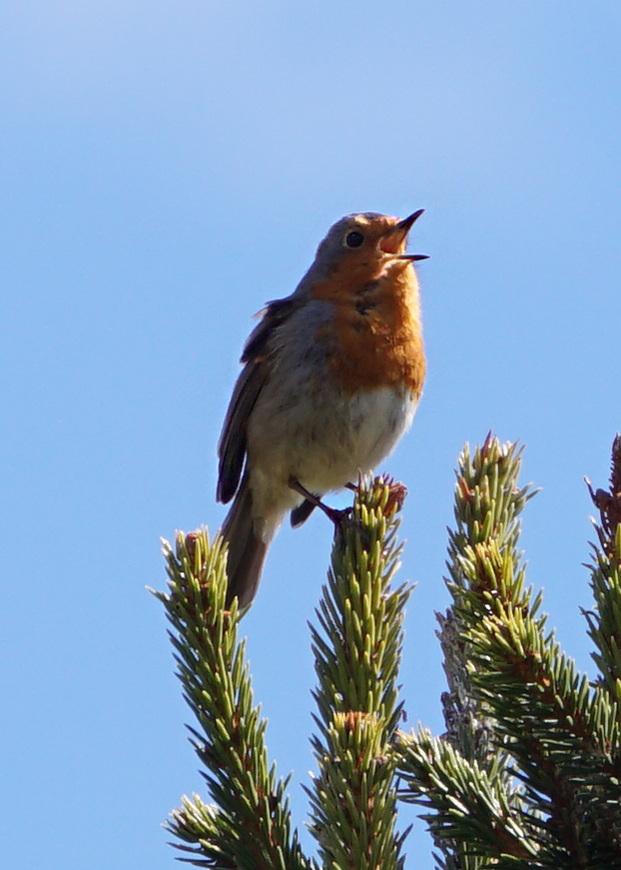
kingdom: Animalia
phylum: Chordata
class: Aves
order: Passeriformes
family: Muscicapidae
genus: Erithacus
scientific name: Erithacus rubecula
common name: European robin
